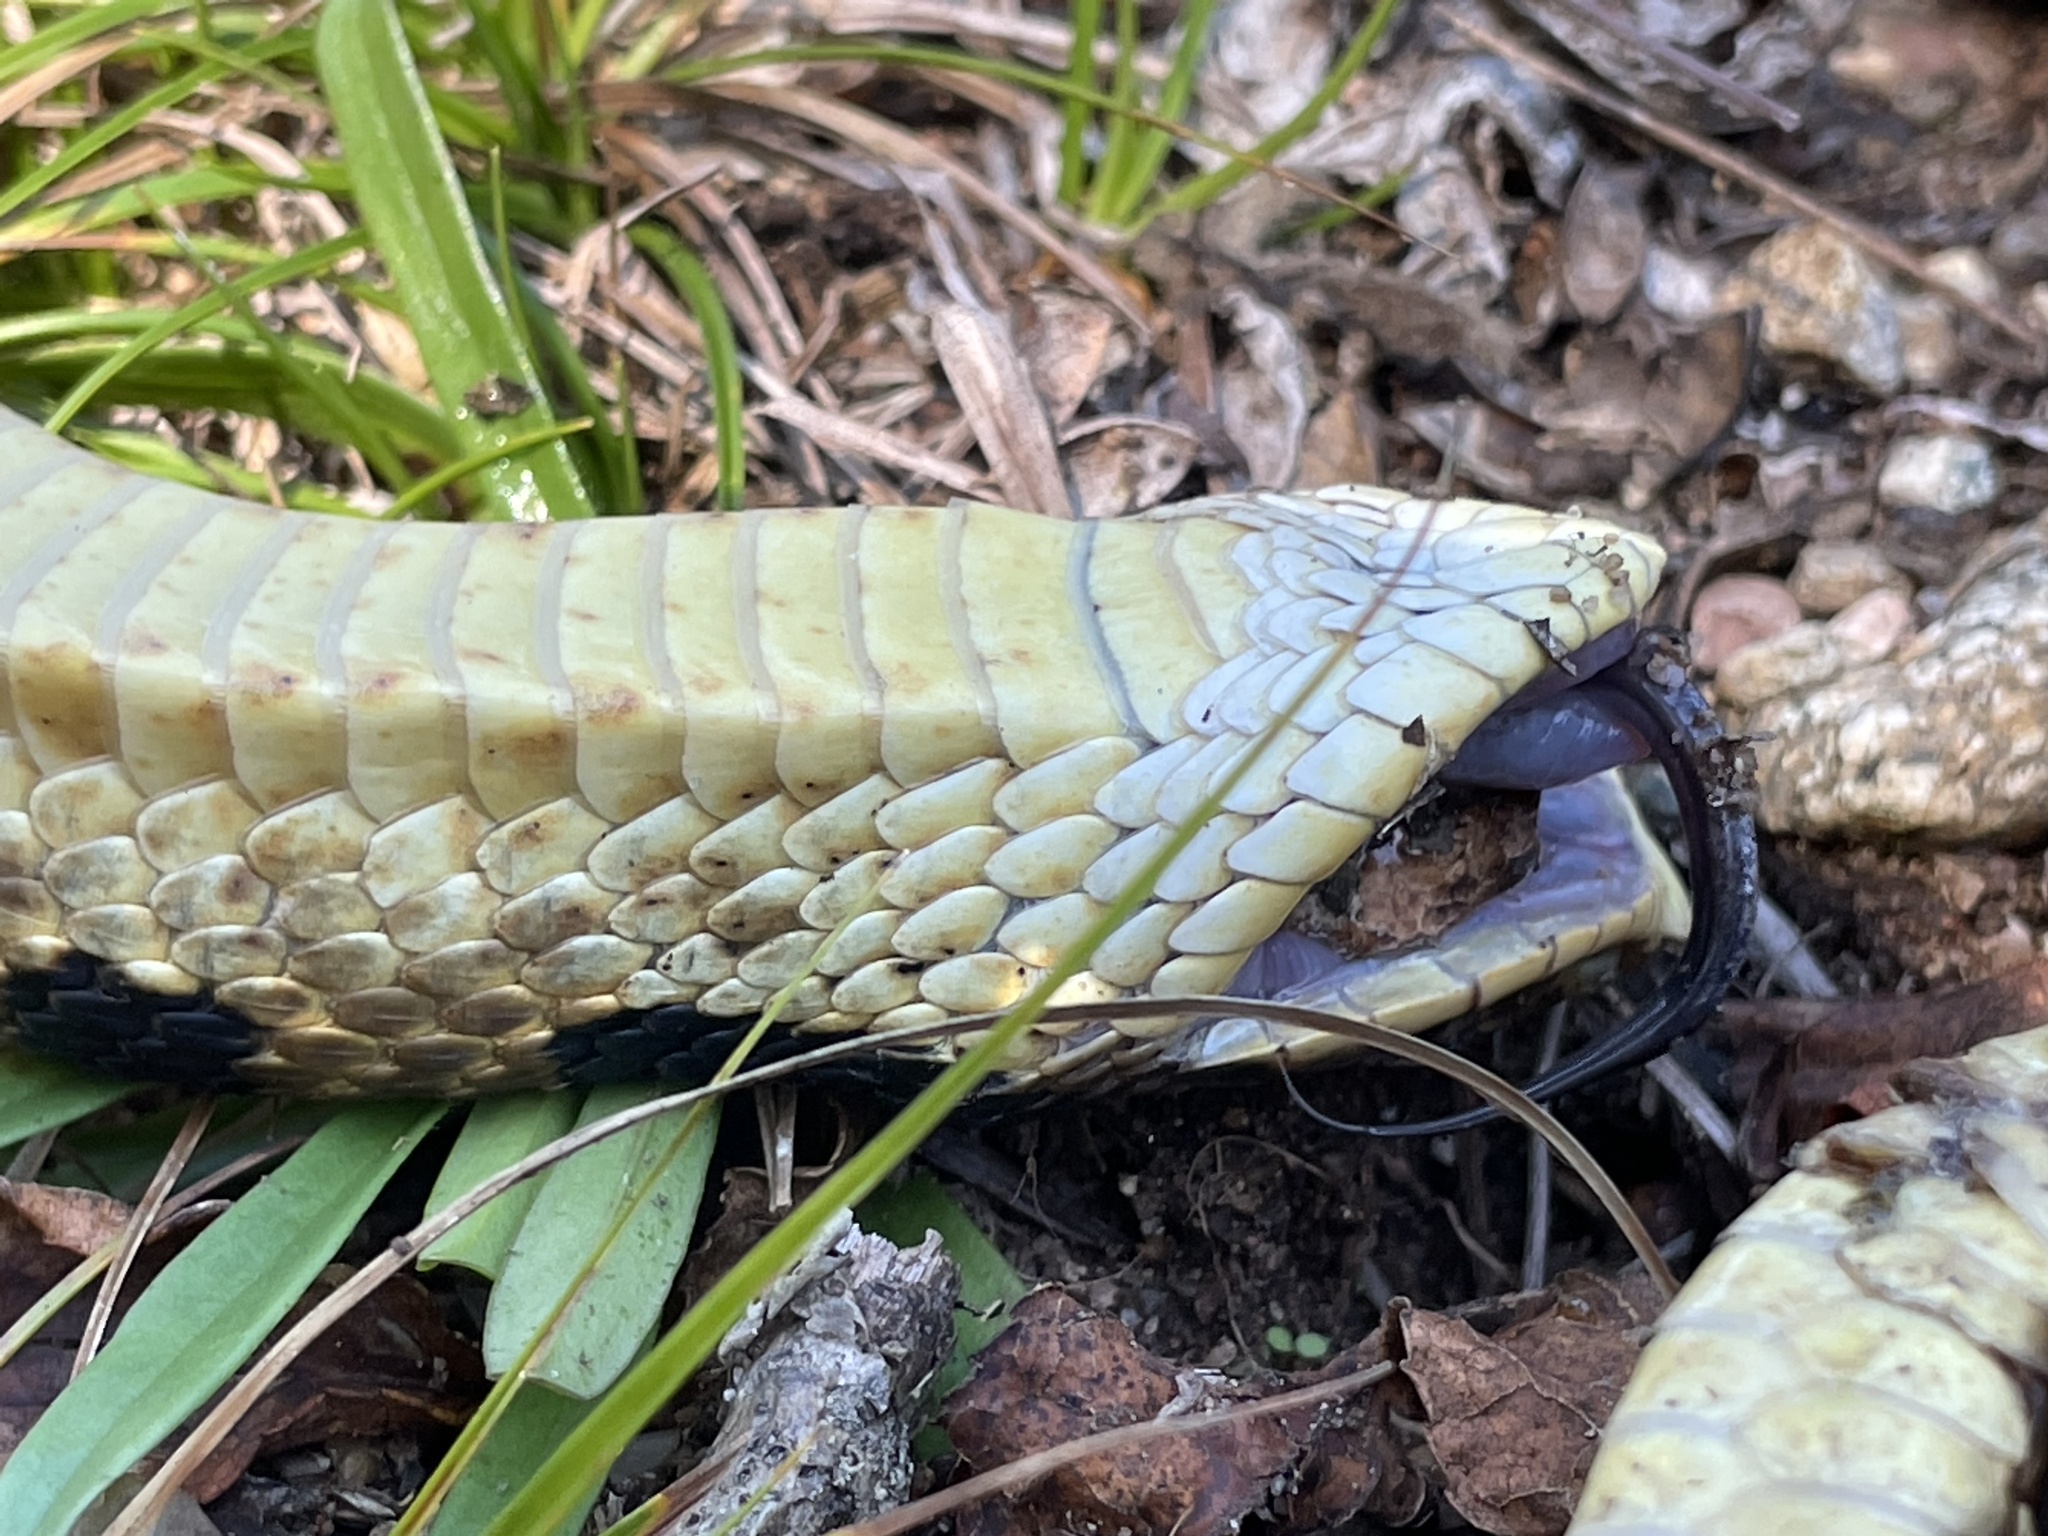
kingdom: Animalia
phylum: Chordata
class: Squamata
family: Colubridae
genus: Heterodon
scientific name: Heterodon platirhinos
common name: Eastern hognose snake
